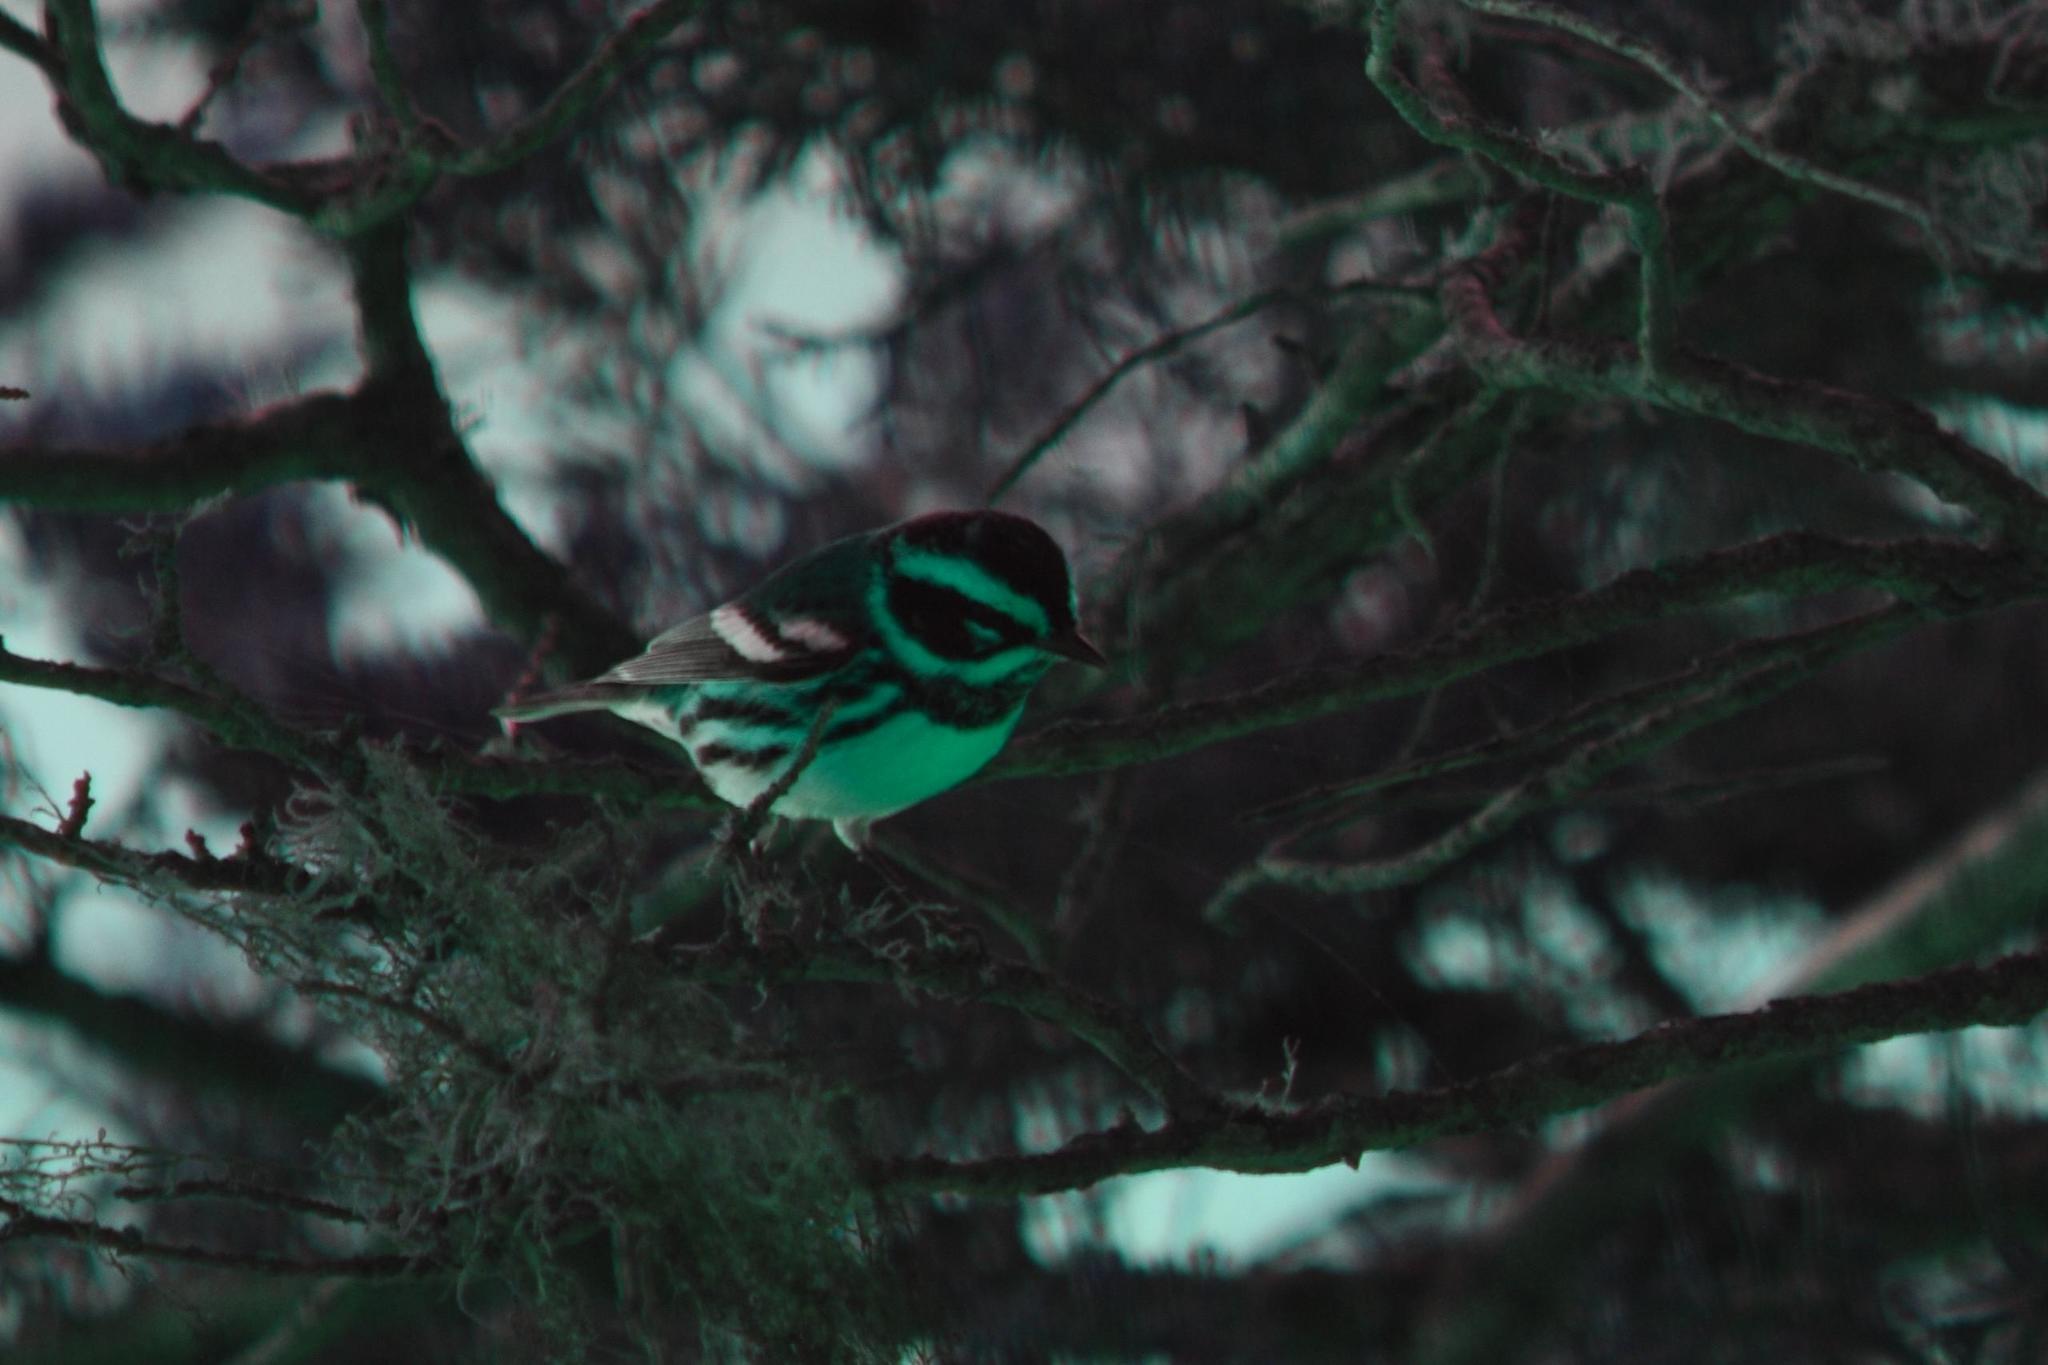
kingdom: Animalia
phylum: Chordata
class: Aves
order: Passeriformes
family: Parulidae
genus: Setophaga
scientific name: Setophaga townsendi
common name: Townsend's warbler
